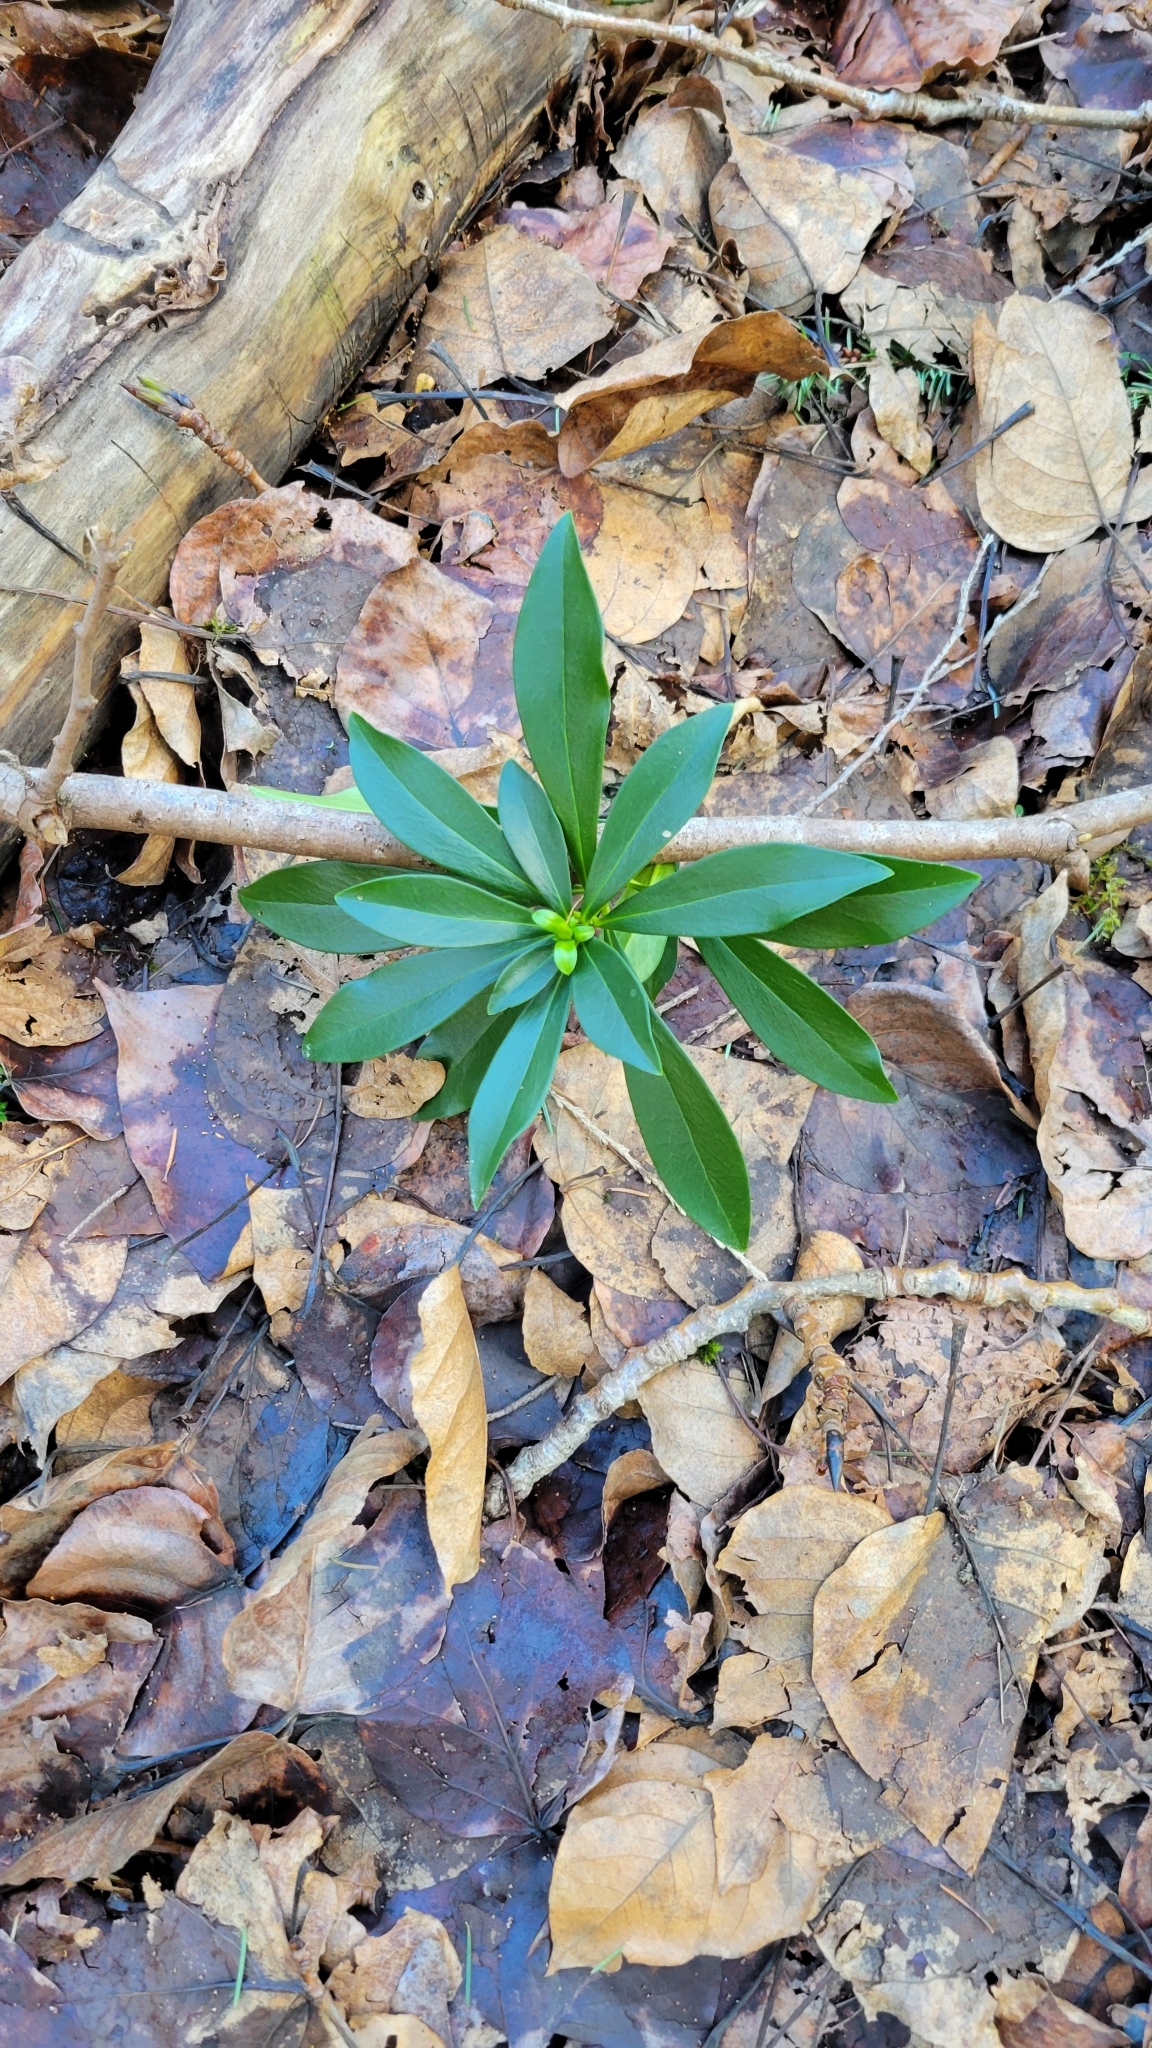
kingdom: Plantae
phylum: Tracheophyta
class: Magnoliopsida
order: Malvales
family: Thymelaeaceae
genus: Daphne
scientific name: Daphne laureola
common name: Spurge-laurel
